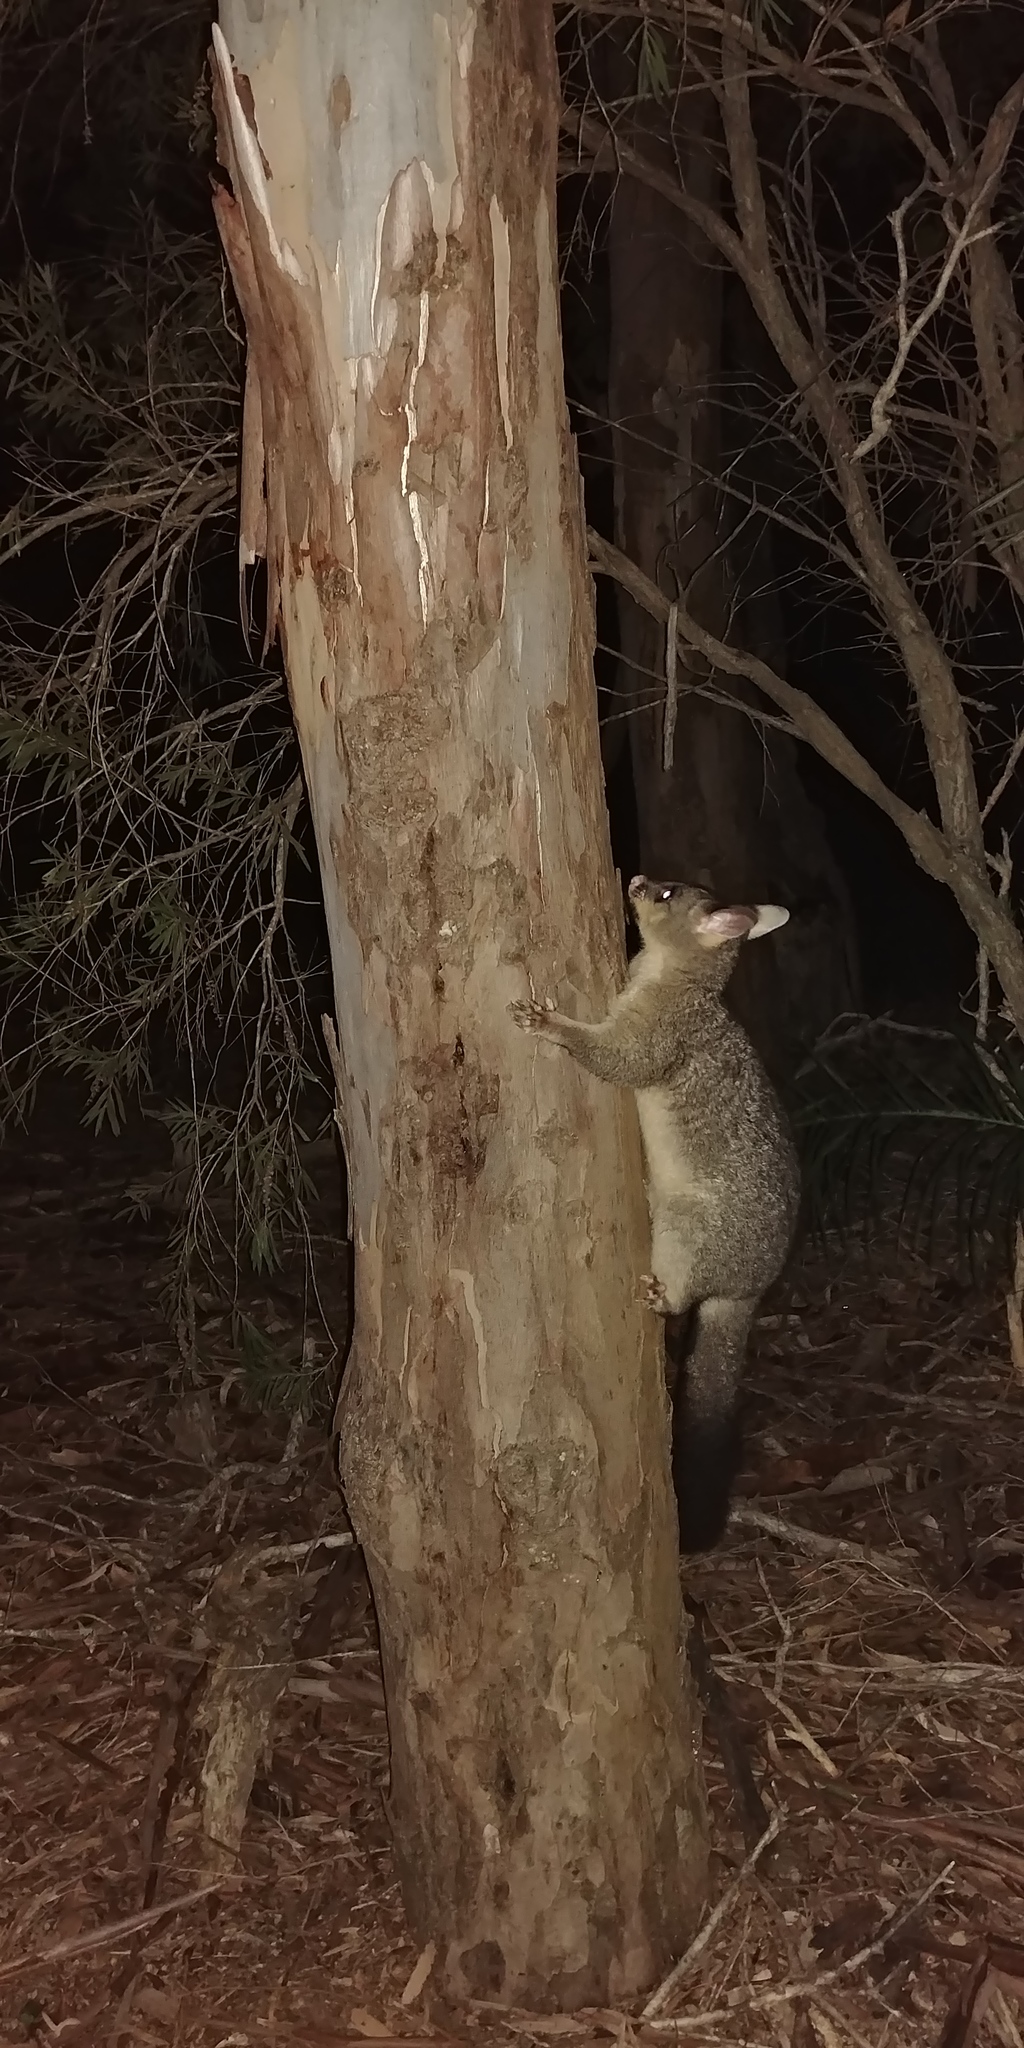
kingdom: Animalia
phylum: Chordata
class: Mammalia
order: Diprotodontia
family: Phalangeridae
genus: Trichosurus
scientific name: Trichosurus vulpecula
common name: Common brushtail
